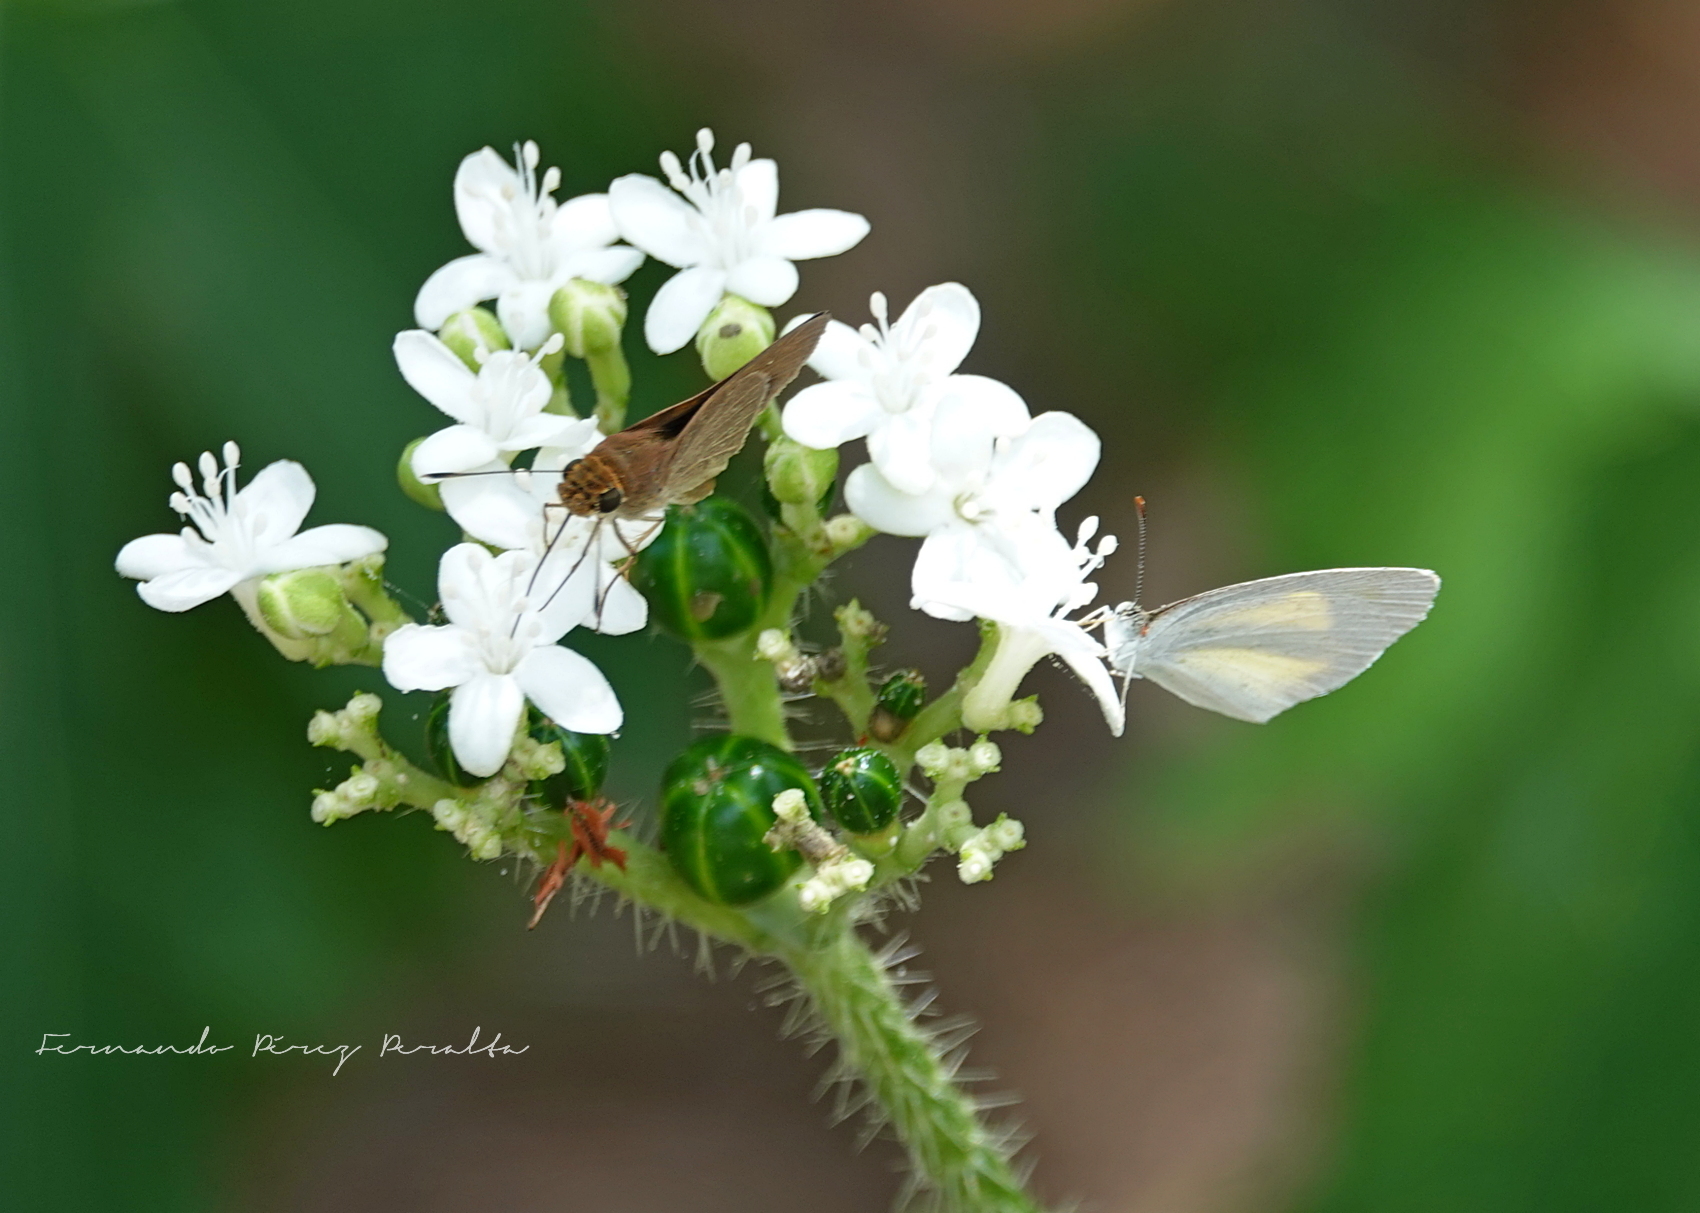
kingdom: Animalia
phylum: Arthropoda
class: Insecta
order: Lepidoptera
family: Pieridae
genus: Eurema
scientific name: Eurema daira
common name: Barred sulphur
